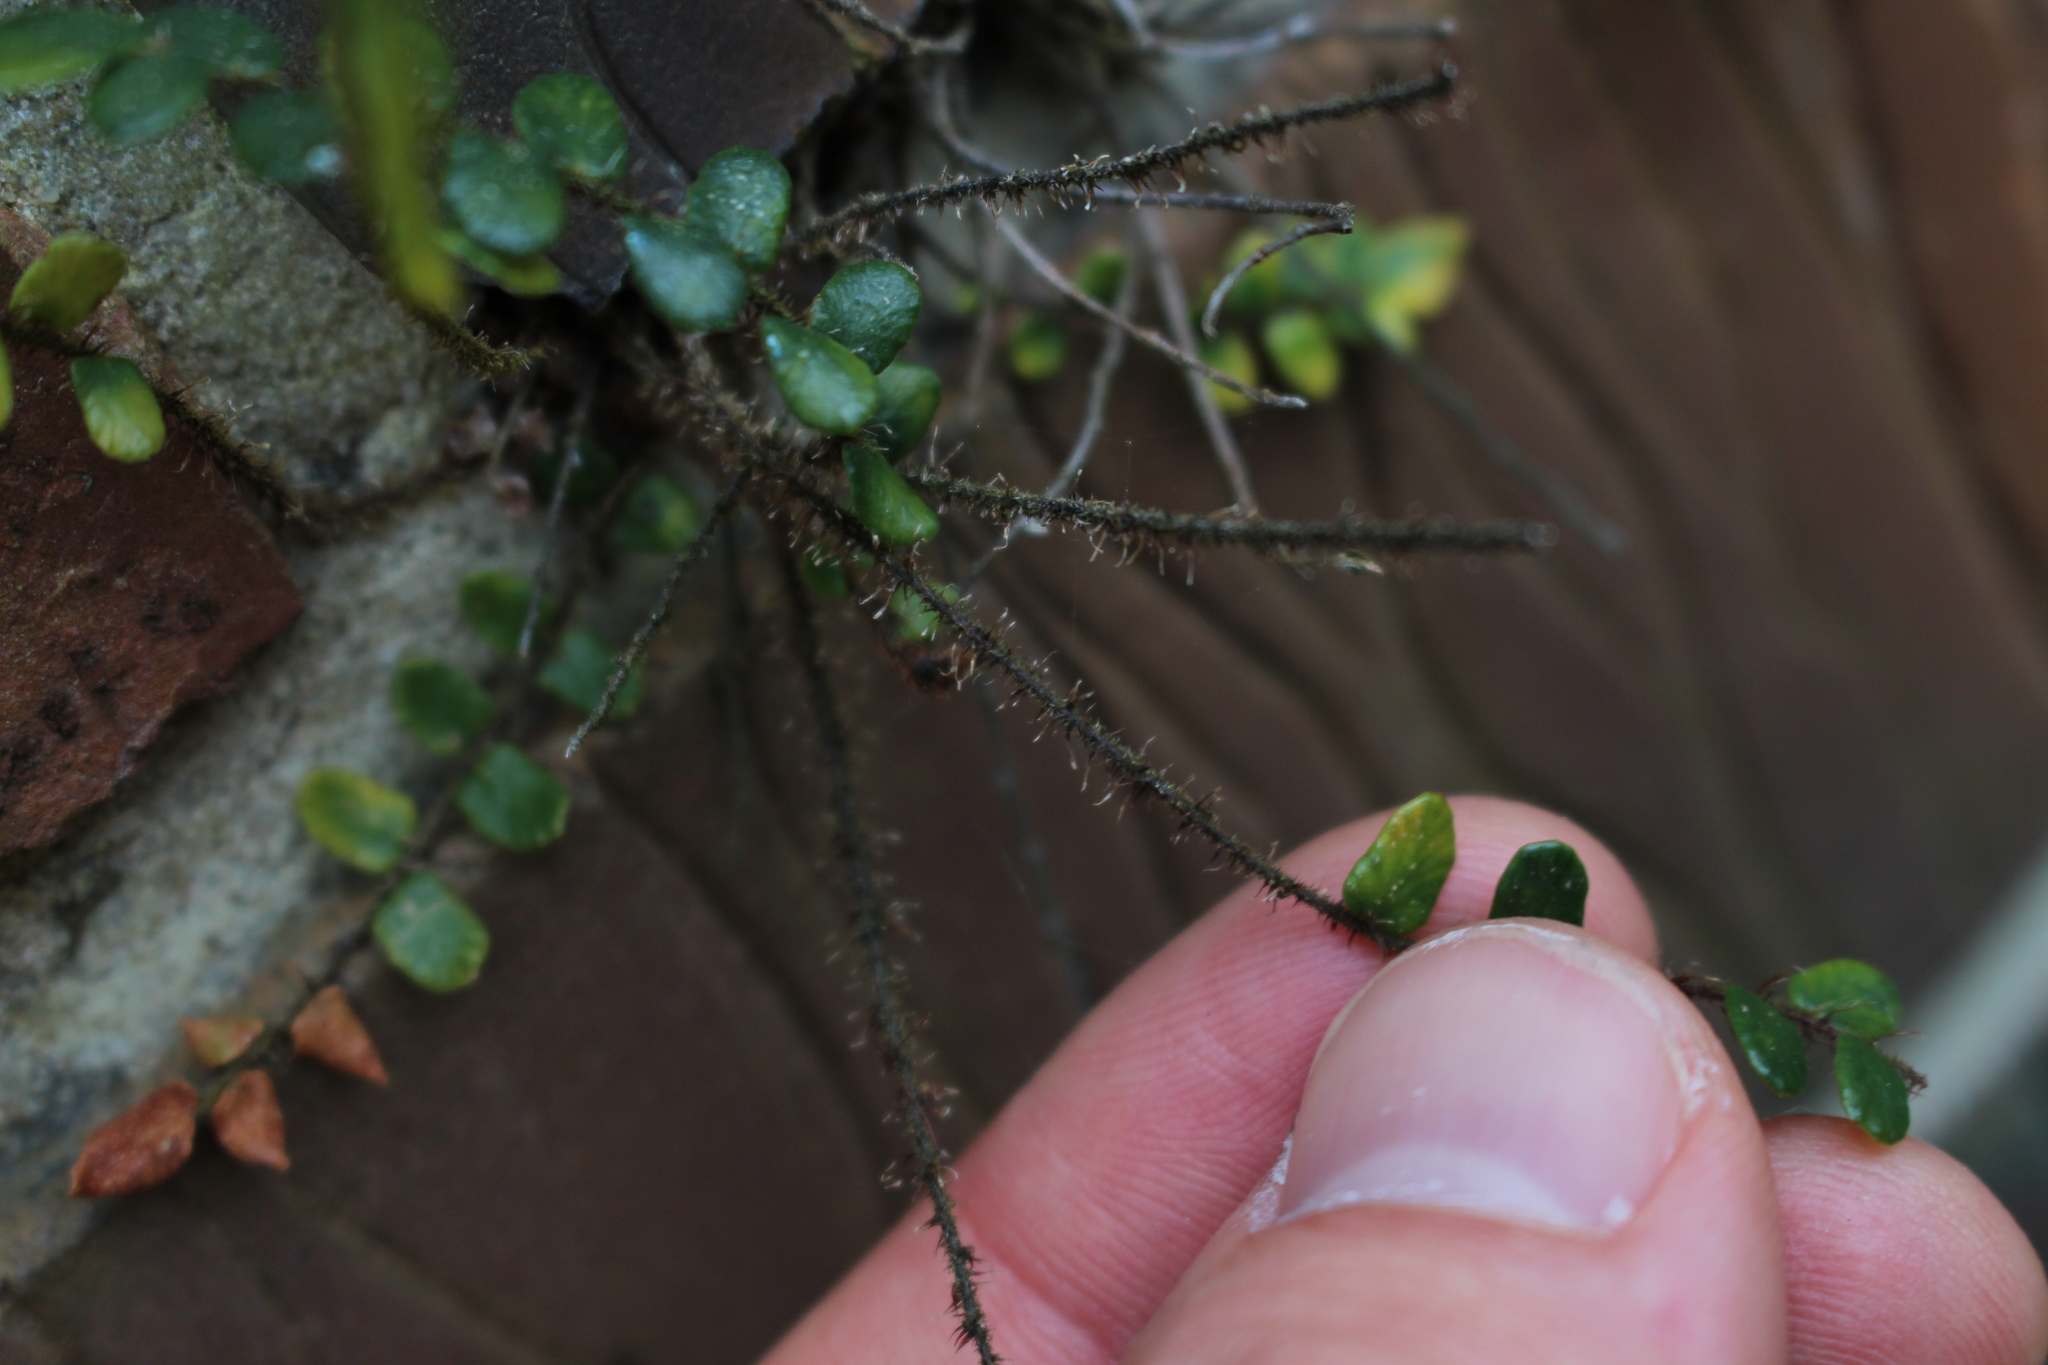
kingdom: Plantae
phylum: Tracheophyta
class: Polypodiopsida
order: Polypodiales
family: Pteridaceae
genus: Pellaea
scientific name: Pellaea rotundifolia
